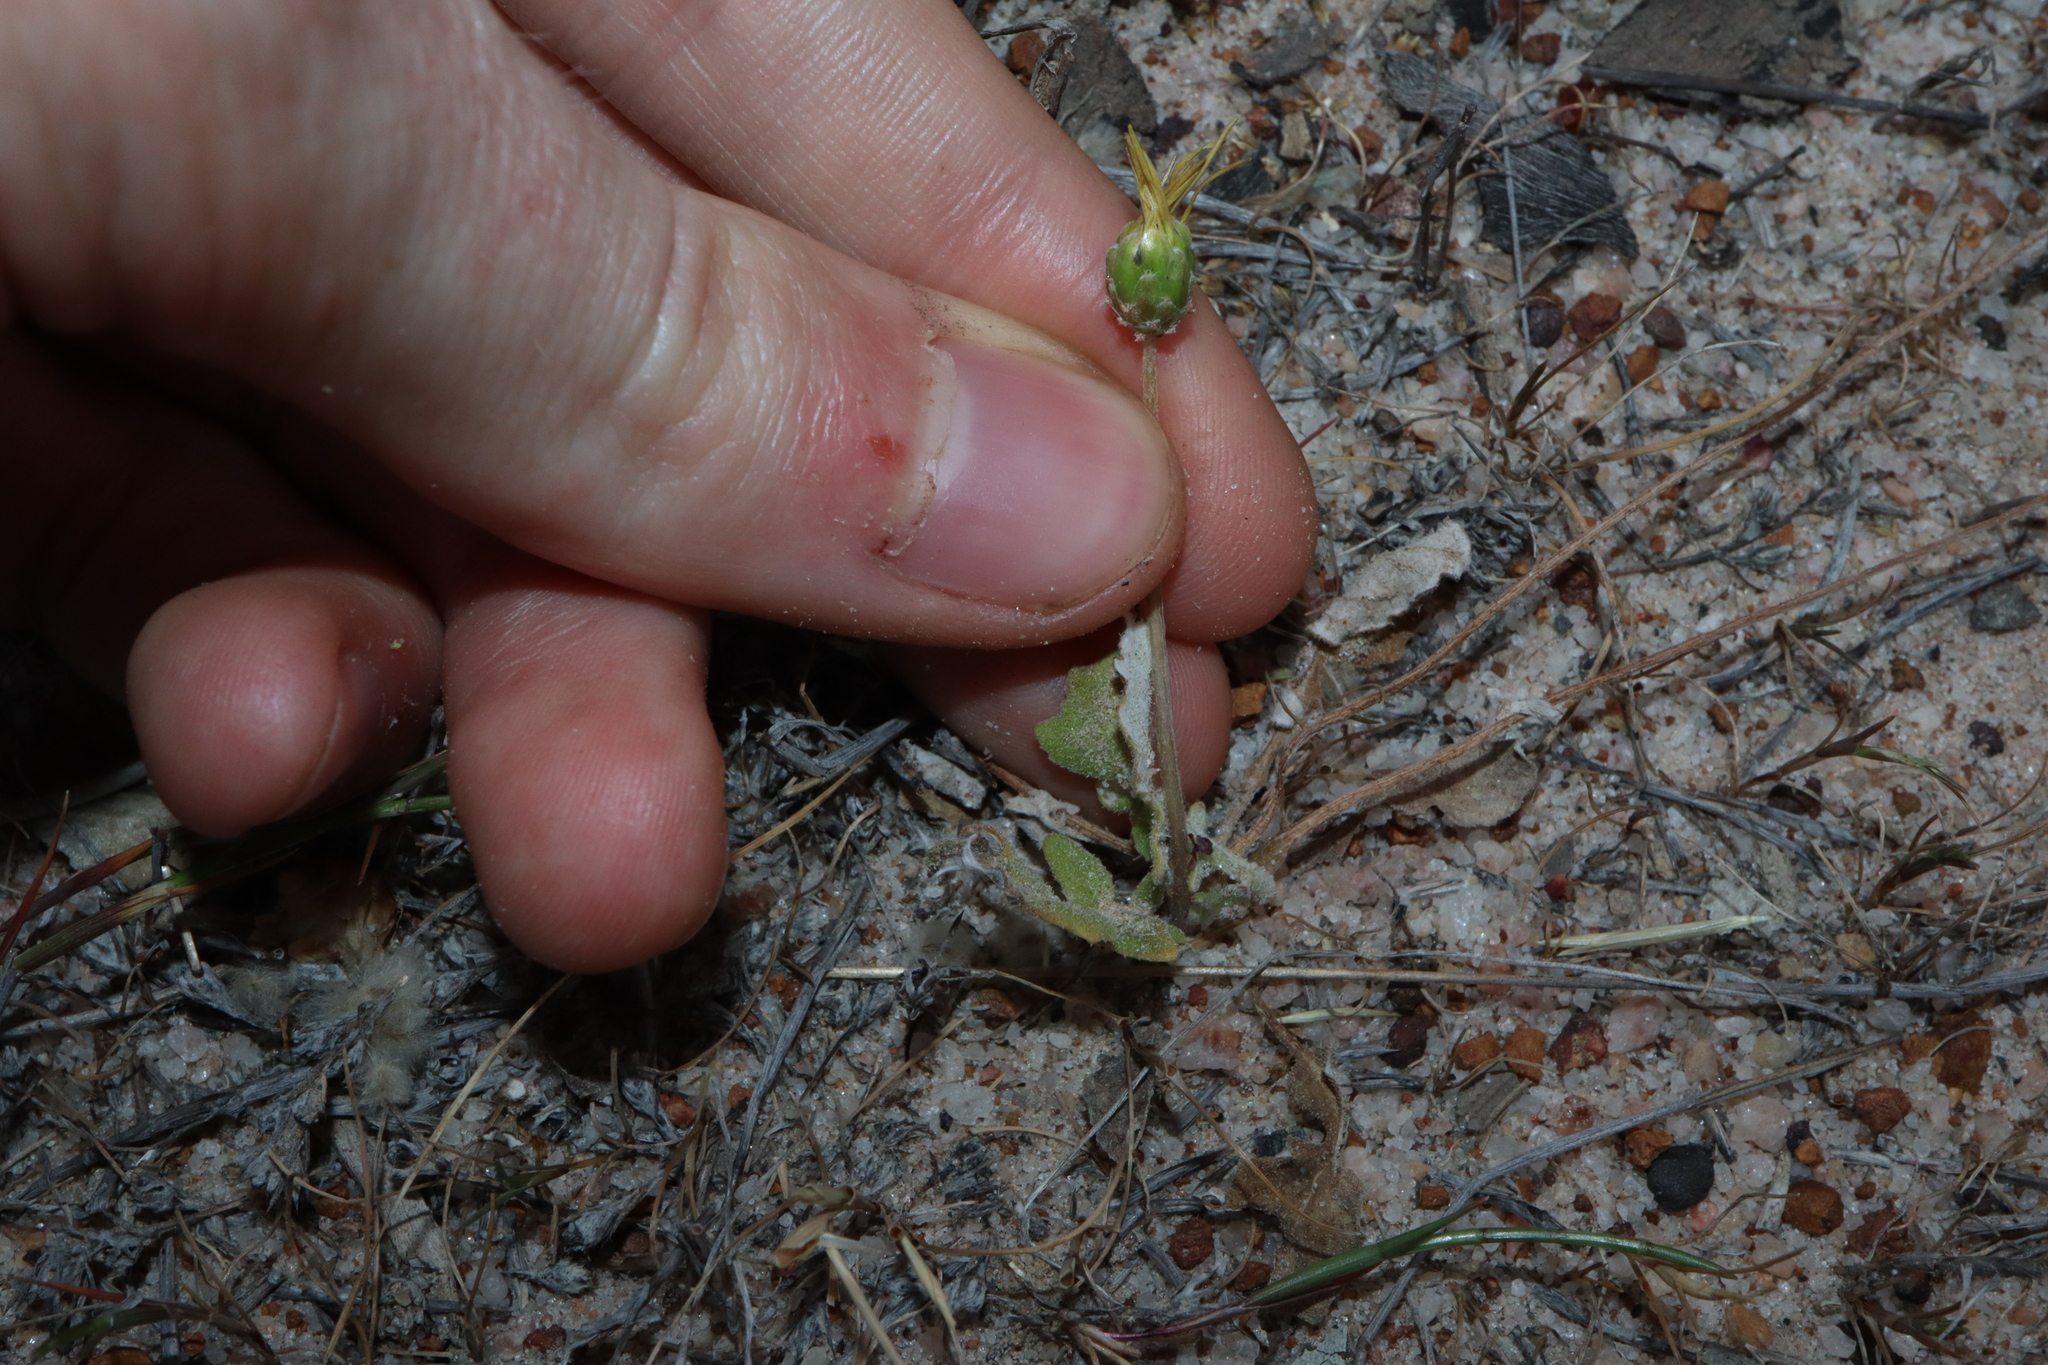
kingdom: Plantae
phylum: Tracheophyta
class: Magnoliopsida
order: Asterales
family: Asteraceae
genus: Arctotheca
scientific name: Arctotheca calendula
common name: Capeweed
